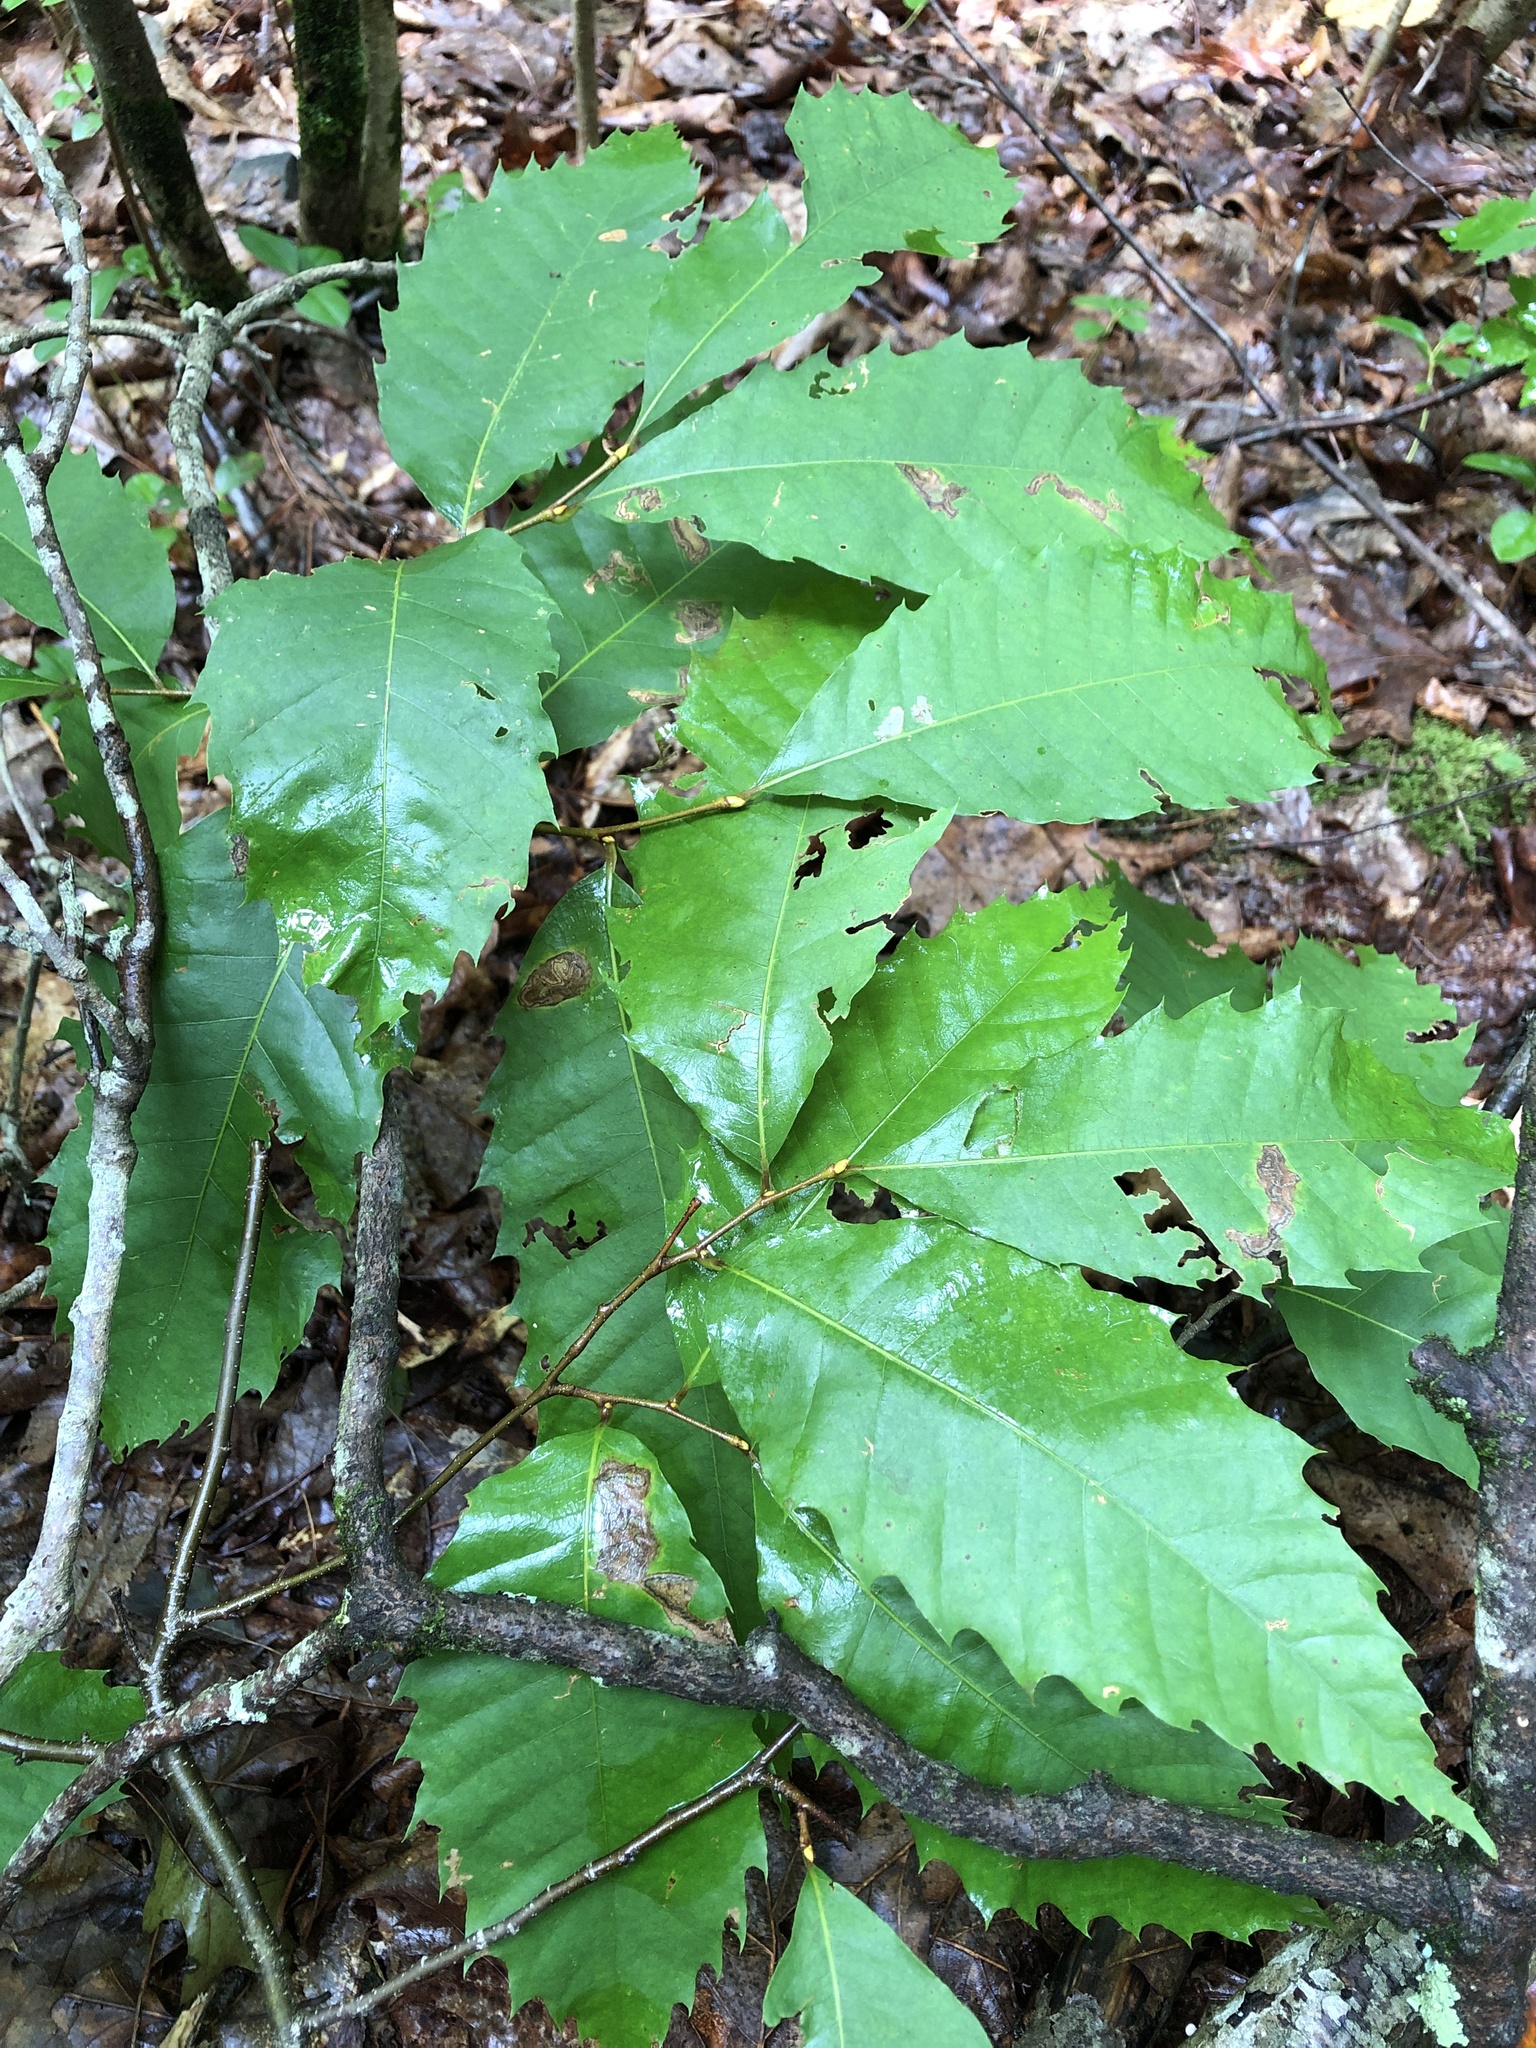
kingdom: Plantae
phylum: Tracheophyta
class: Magnoliopsida
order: Fagales
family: Fagaceae
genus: Castanea
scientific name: Castanea dentata
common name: American chestnut
